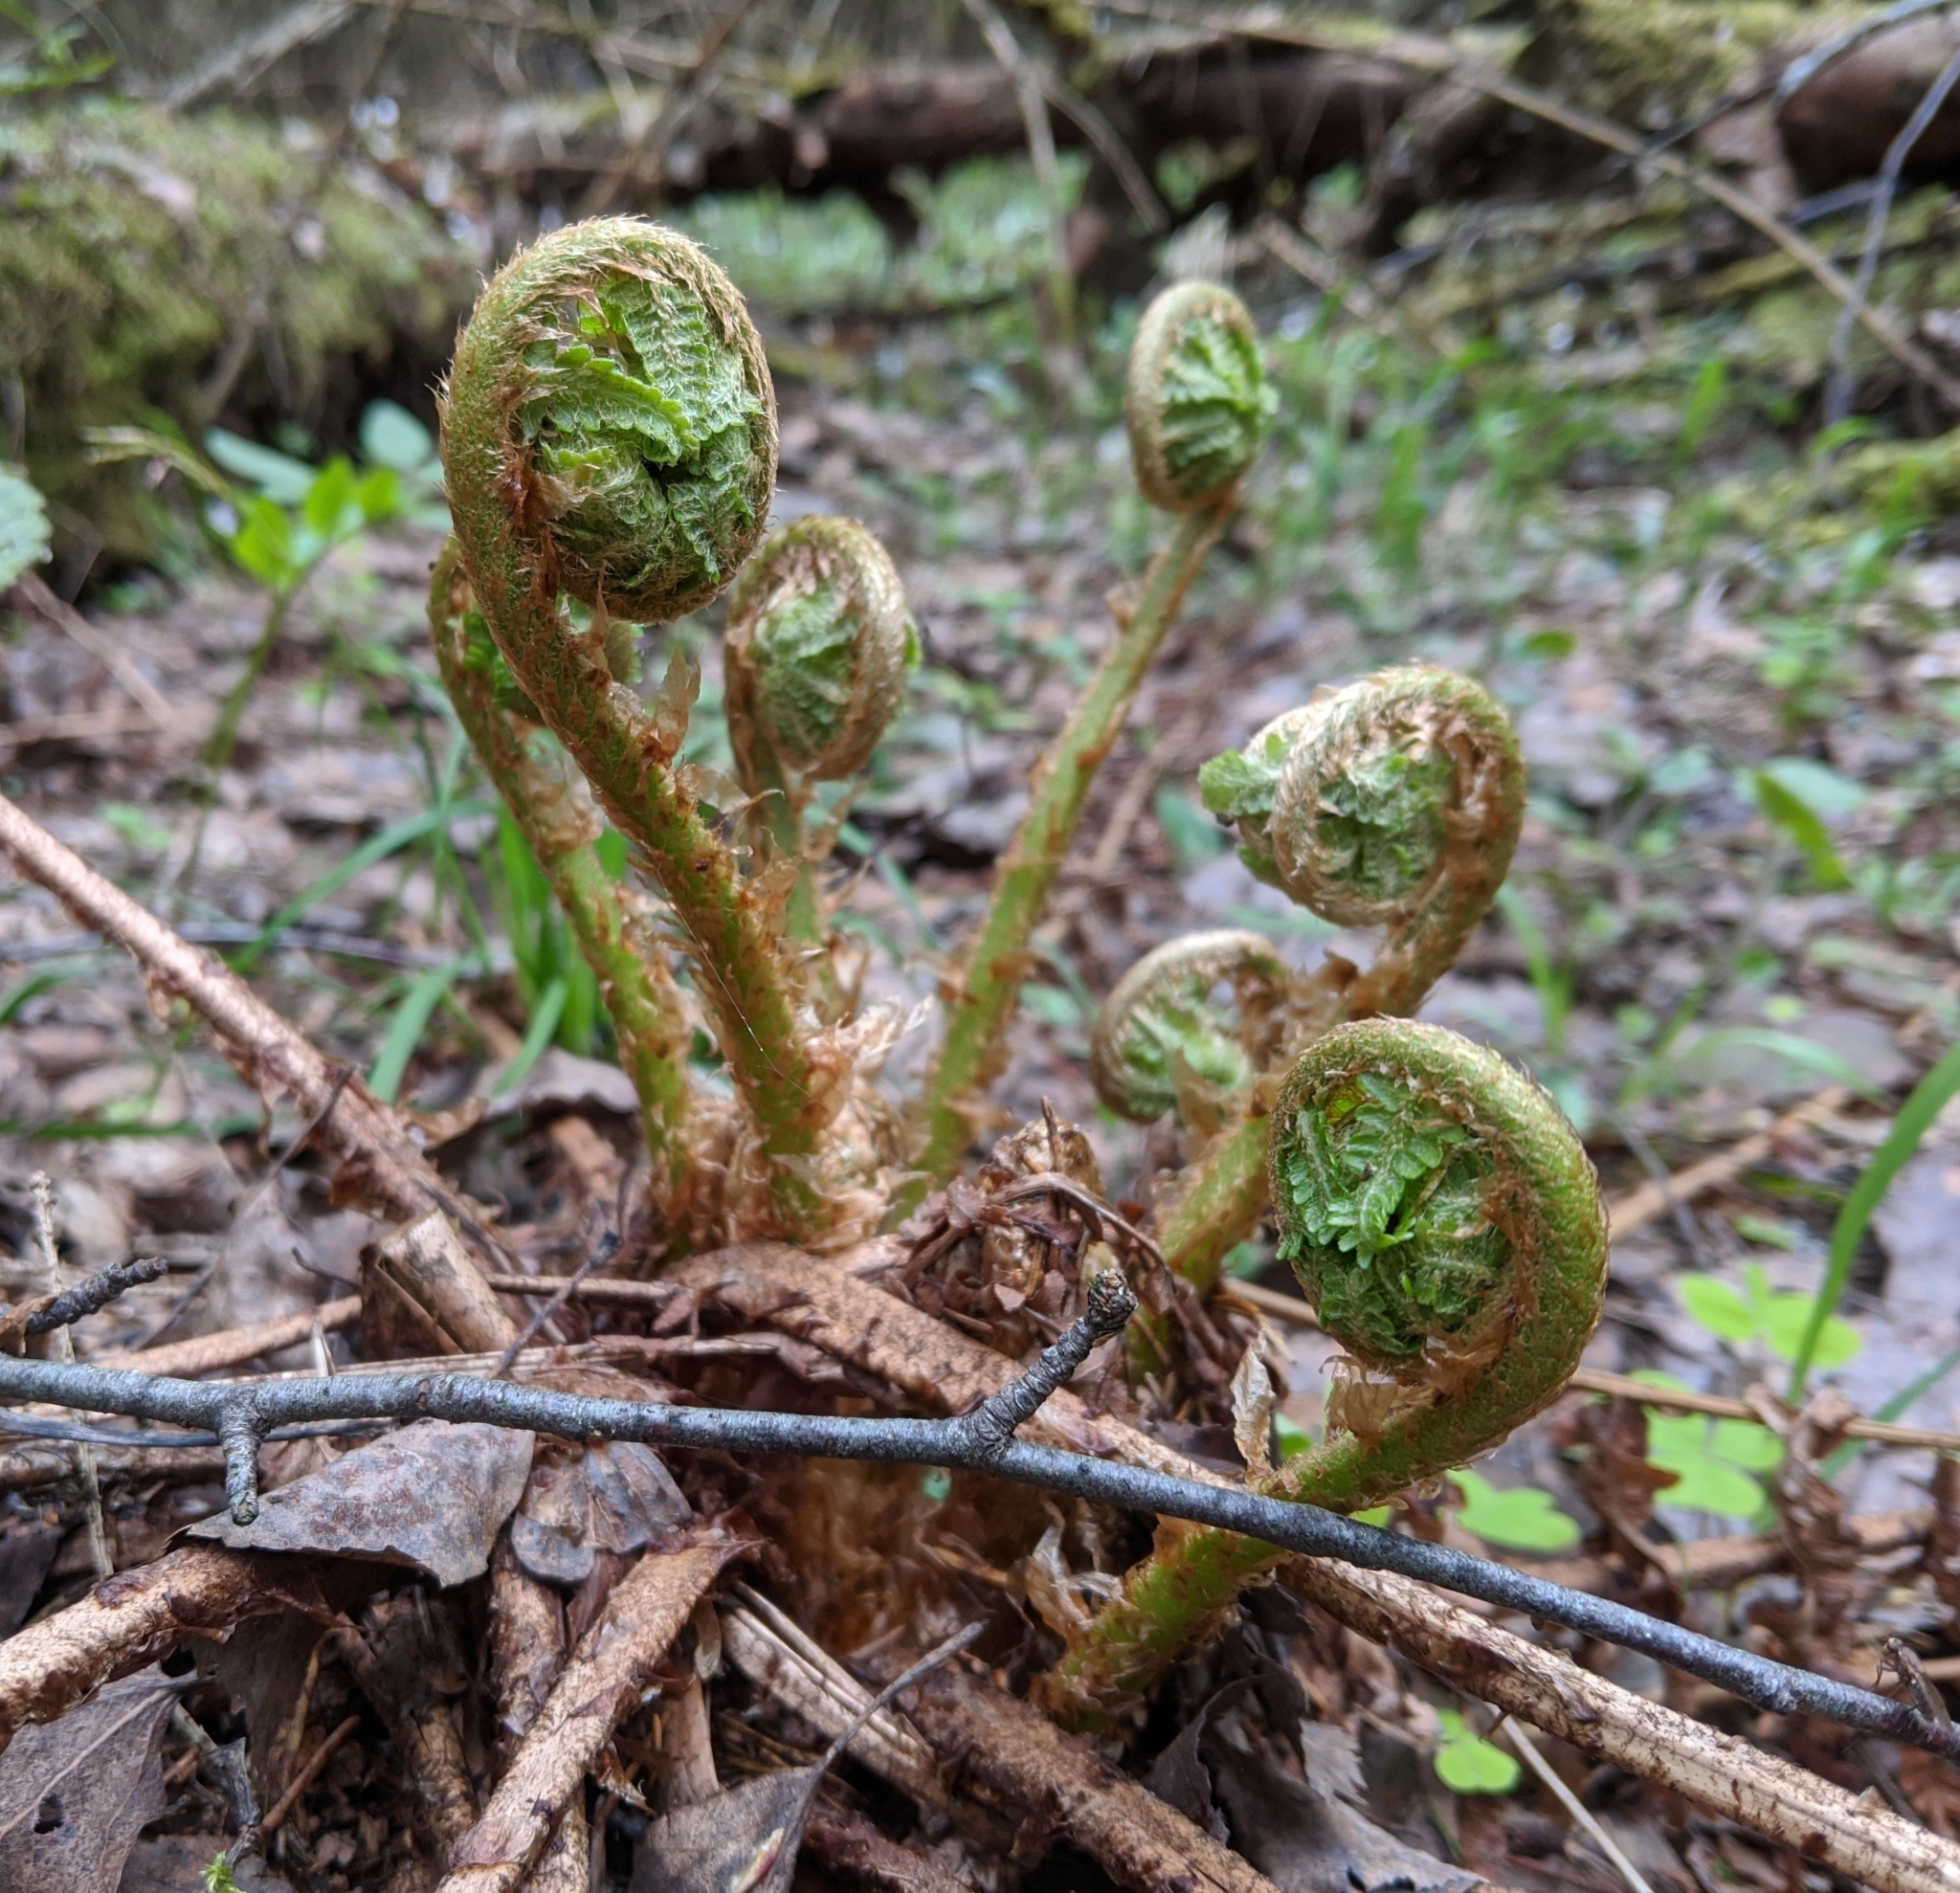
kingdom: Plantae
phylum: Tracheophyta
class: Polypodiopsida
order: Polypodiales
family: Dryopteridaceae
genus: Dryopteris
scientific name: Dryopteris filix-mas
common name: Male fern
